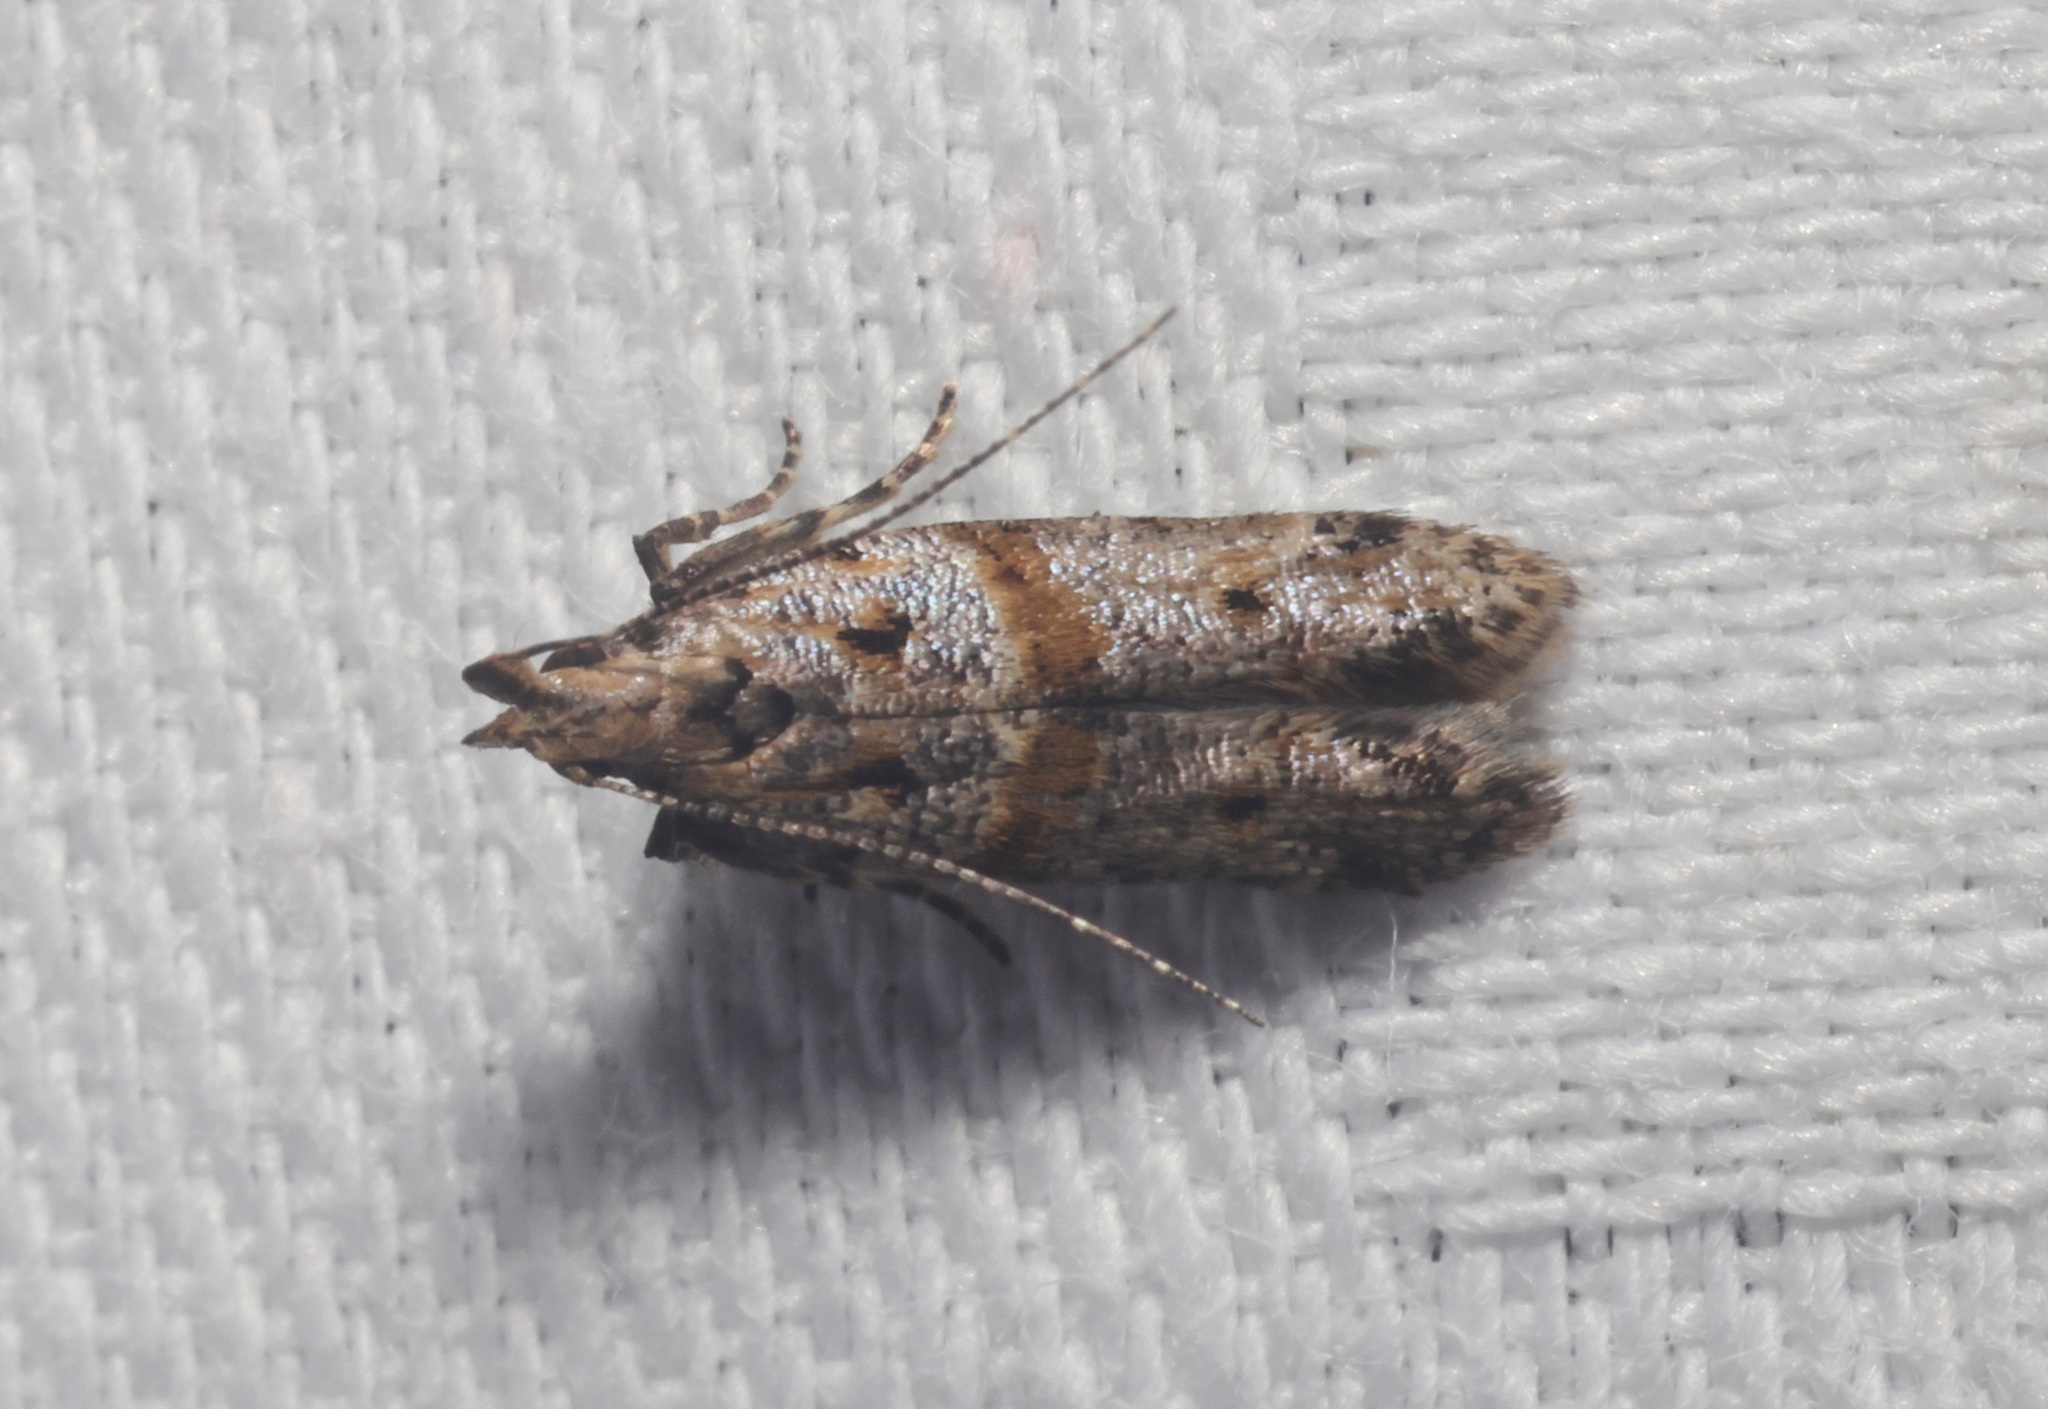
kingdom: Animalia
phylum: Arthropoda
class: Insecta
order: Lepidoptera
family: Gelechiidae
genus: Deltophora
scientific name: Deltophora polliniferens
